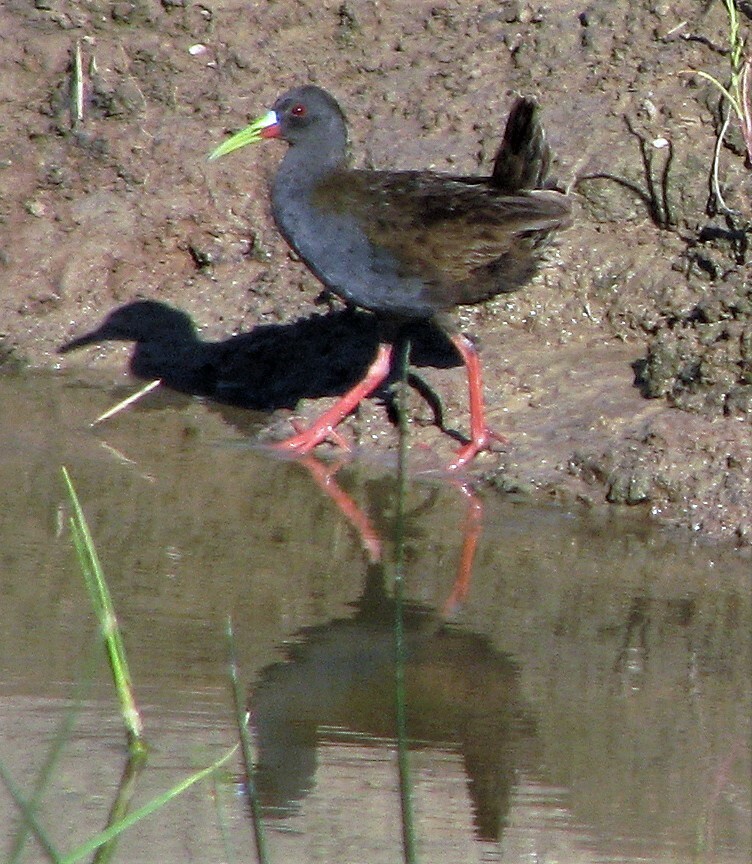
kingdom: Animalia
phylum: Chordata
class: Aves
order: Gruiformes
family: Rallidae
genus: Pardirallus
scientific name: Pardirallus sanguinolentus
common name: Plumbeous rail
